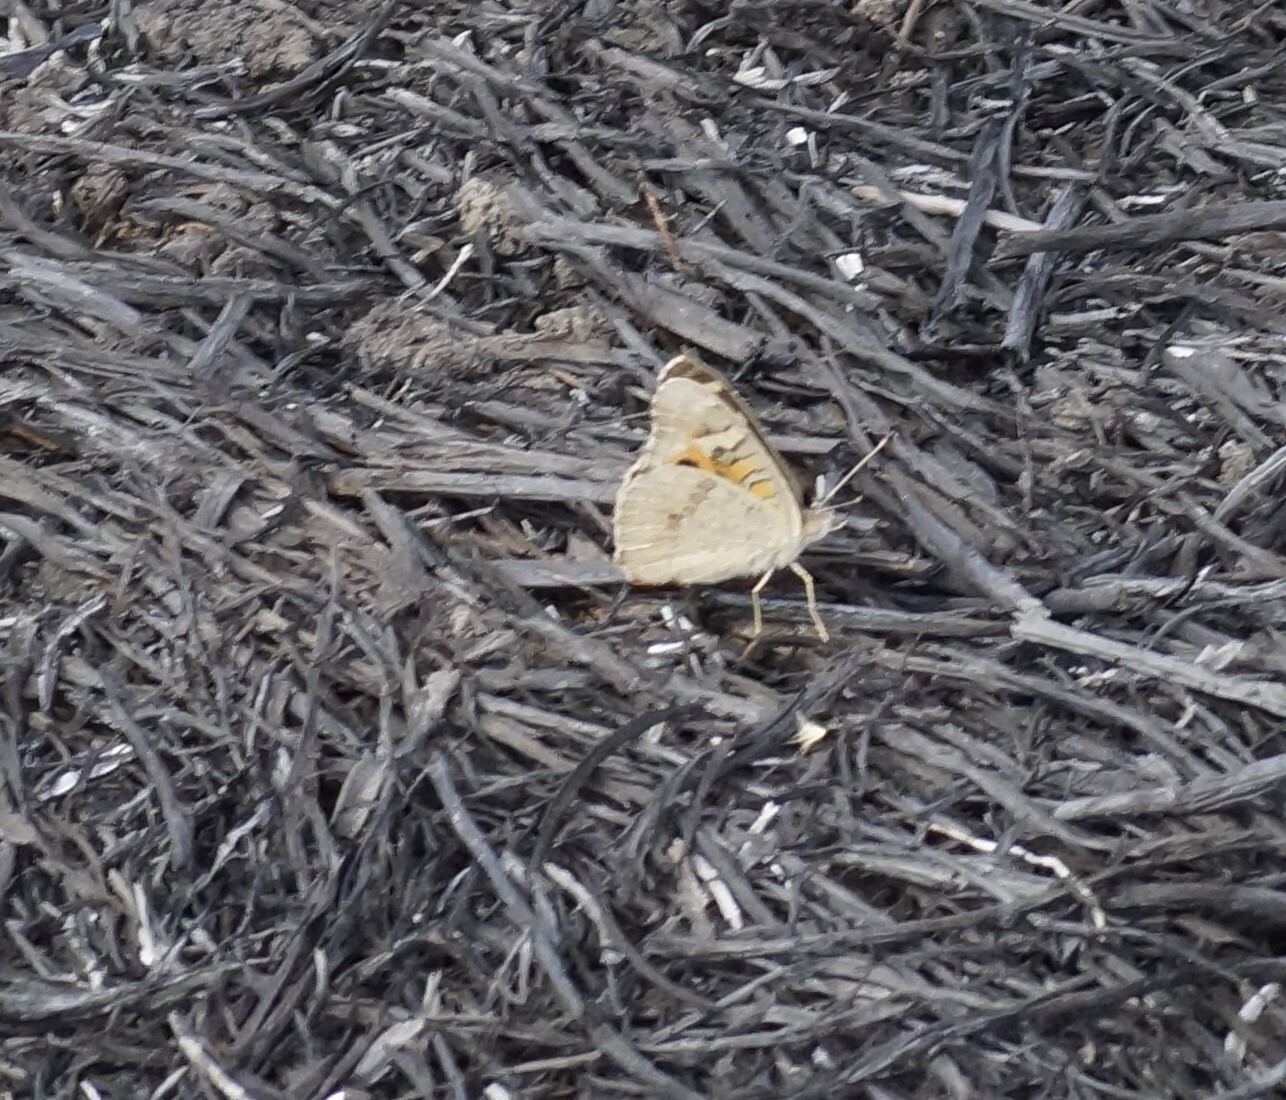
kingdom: Animalia
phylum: Arthropoda
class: Insecta
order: Lepidoptera
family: Nymphalidae
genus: Junonia
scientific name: Junonia villida
